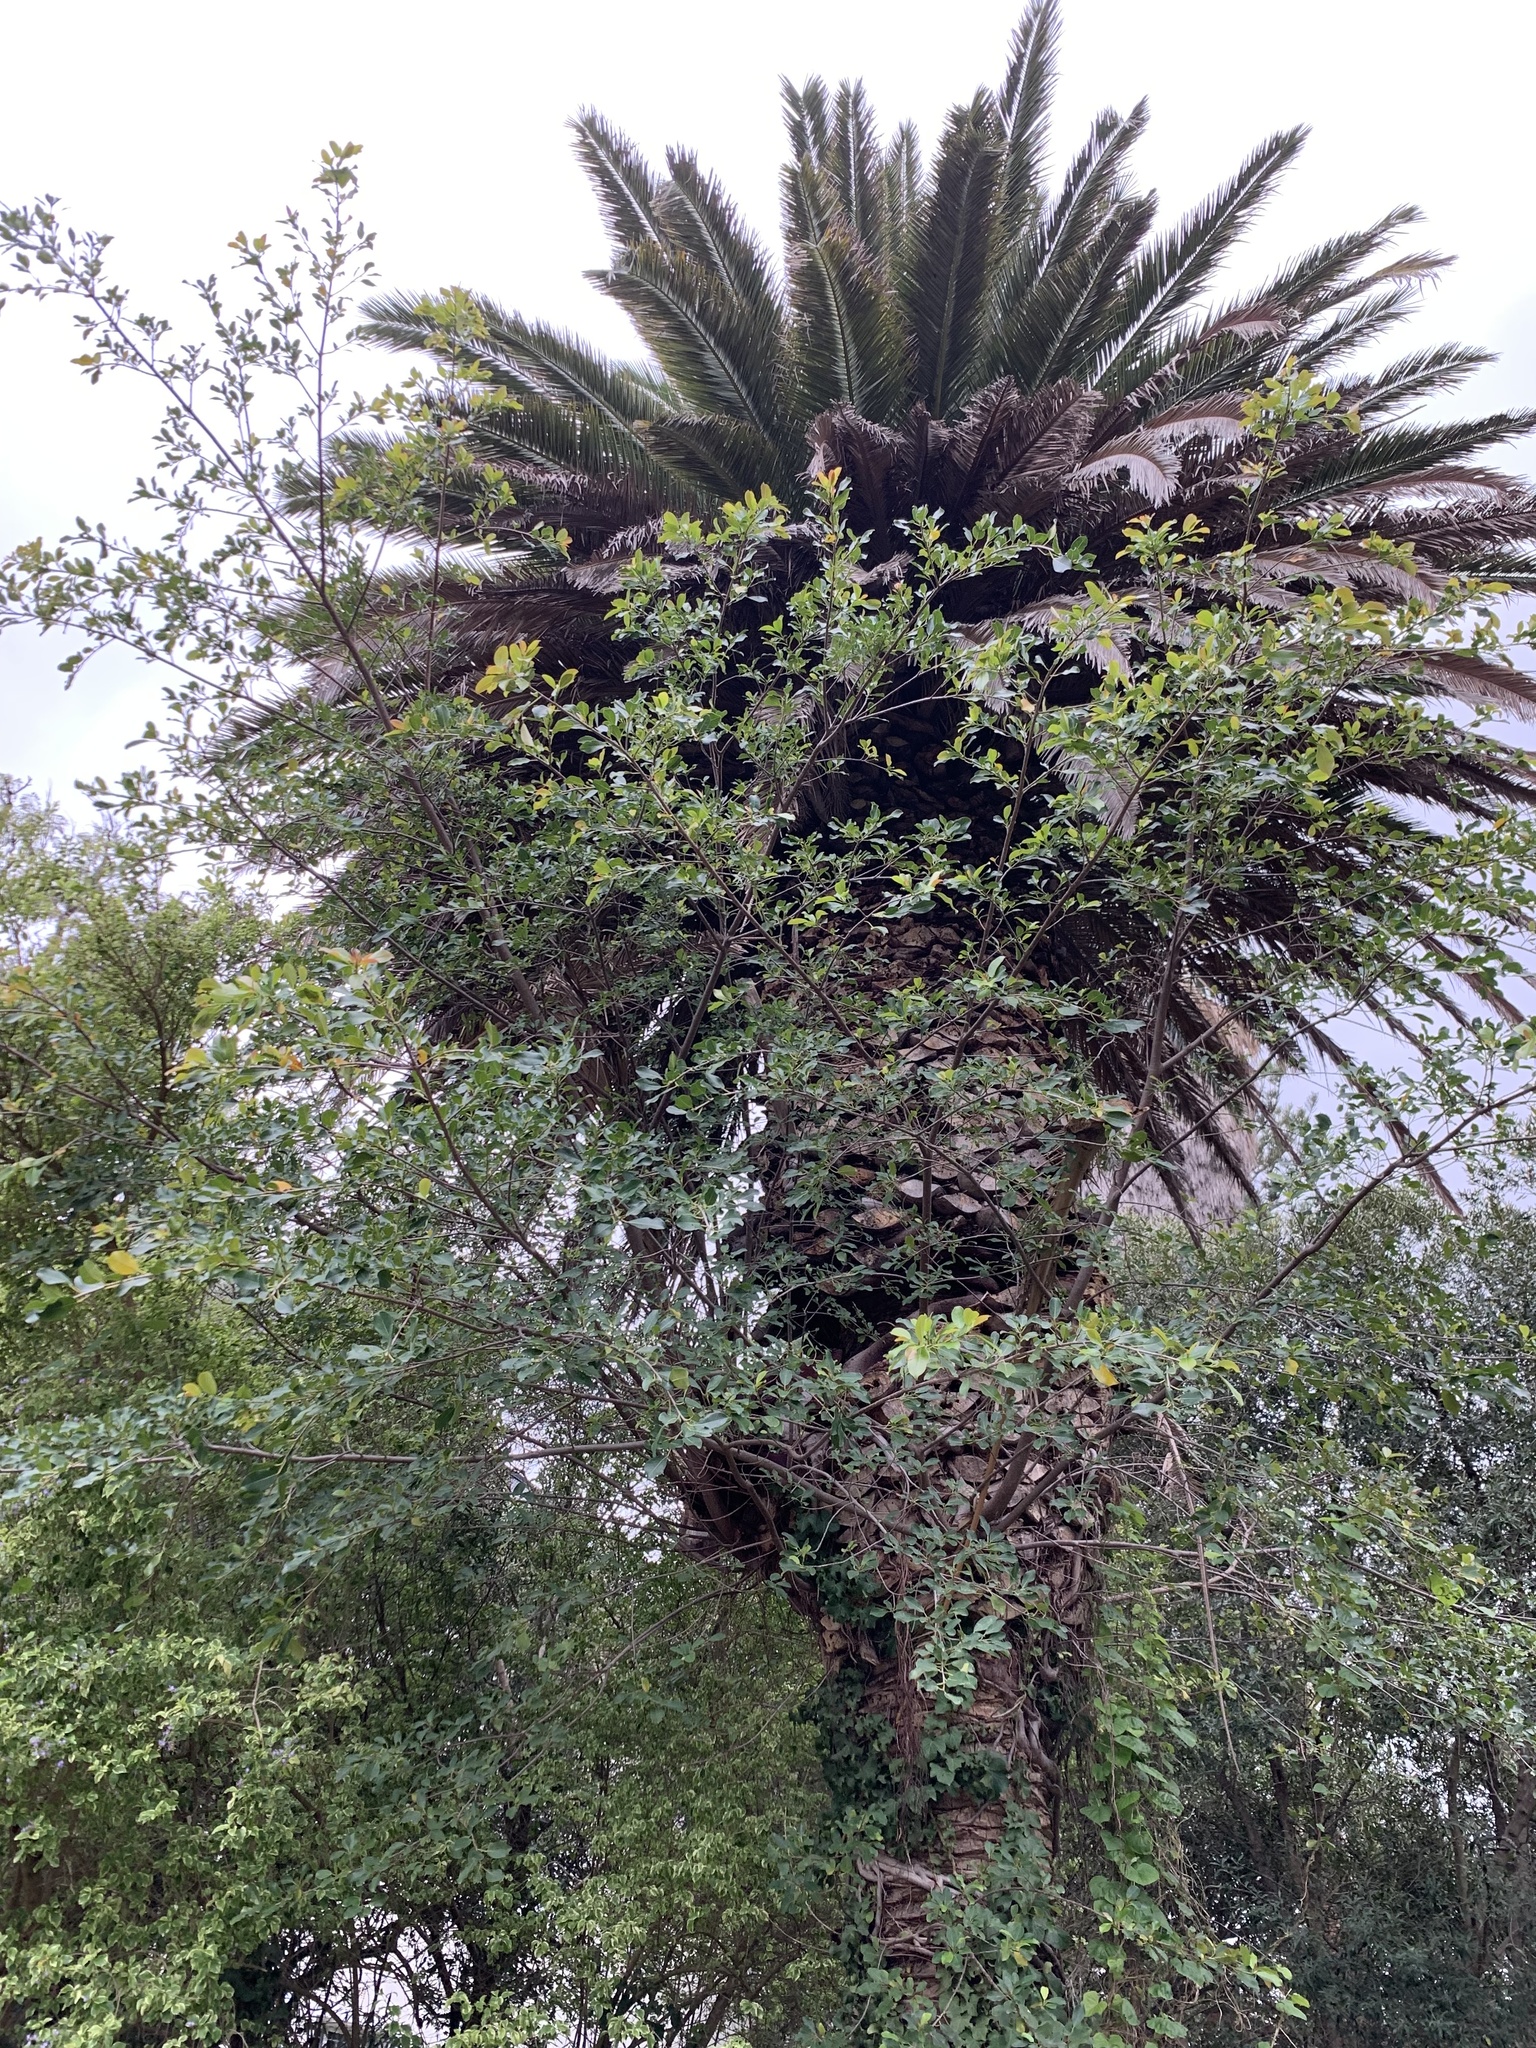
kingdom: Plantae
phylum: Tracheophyta
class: Magnoliopsida
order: Rosales
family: Moraceae
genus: Ficus
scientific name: Ficus thonningii
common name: Fig
